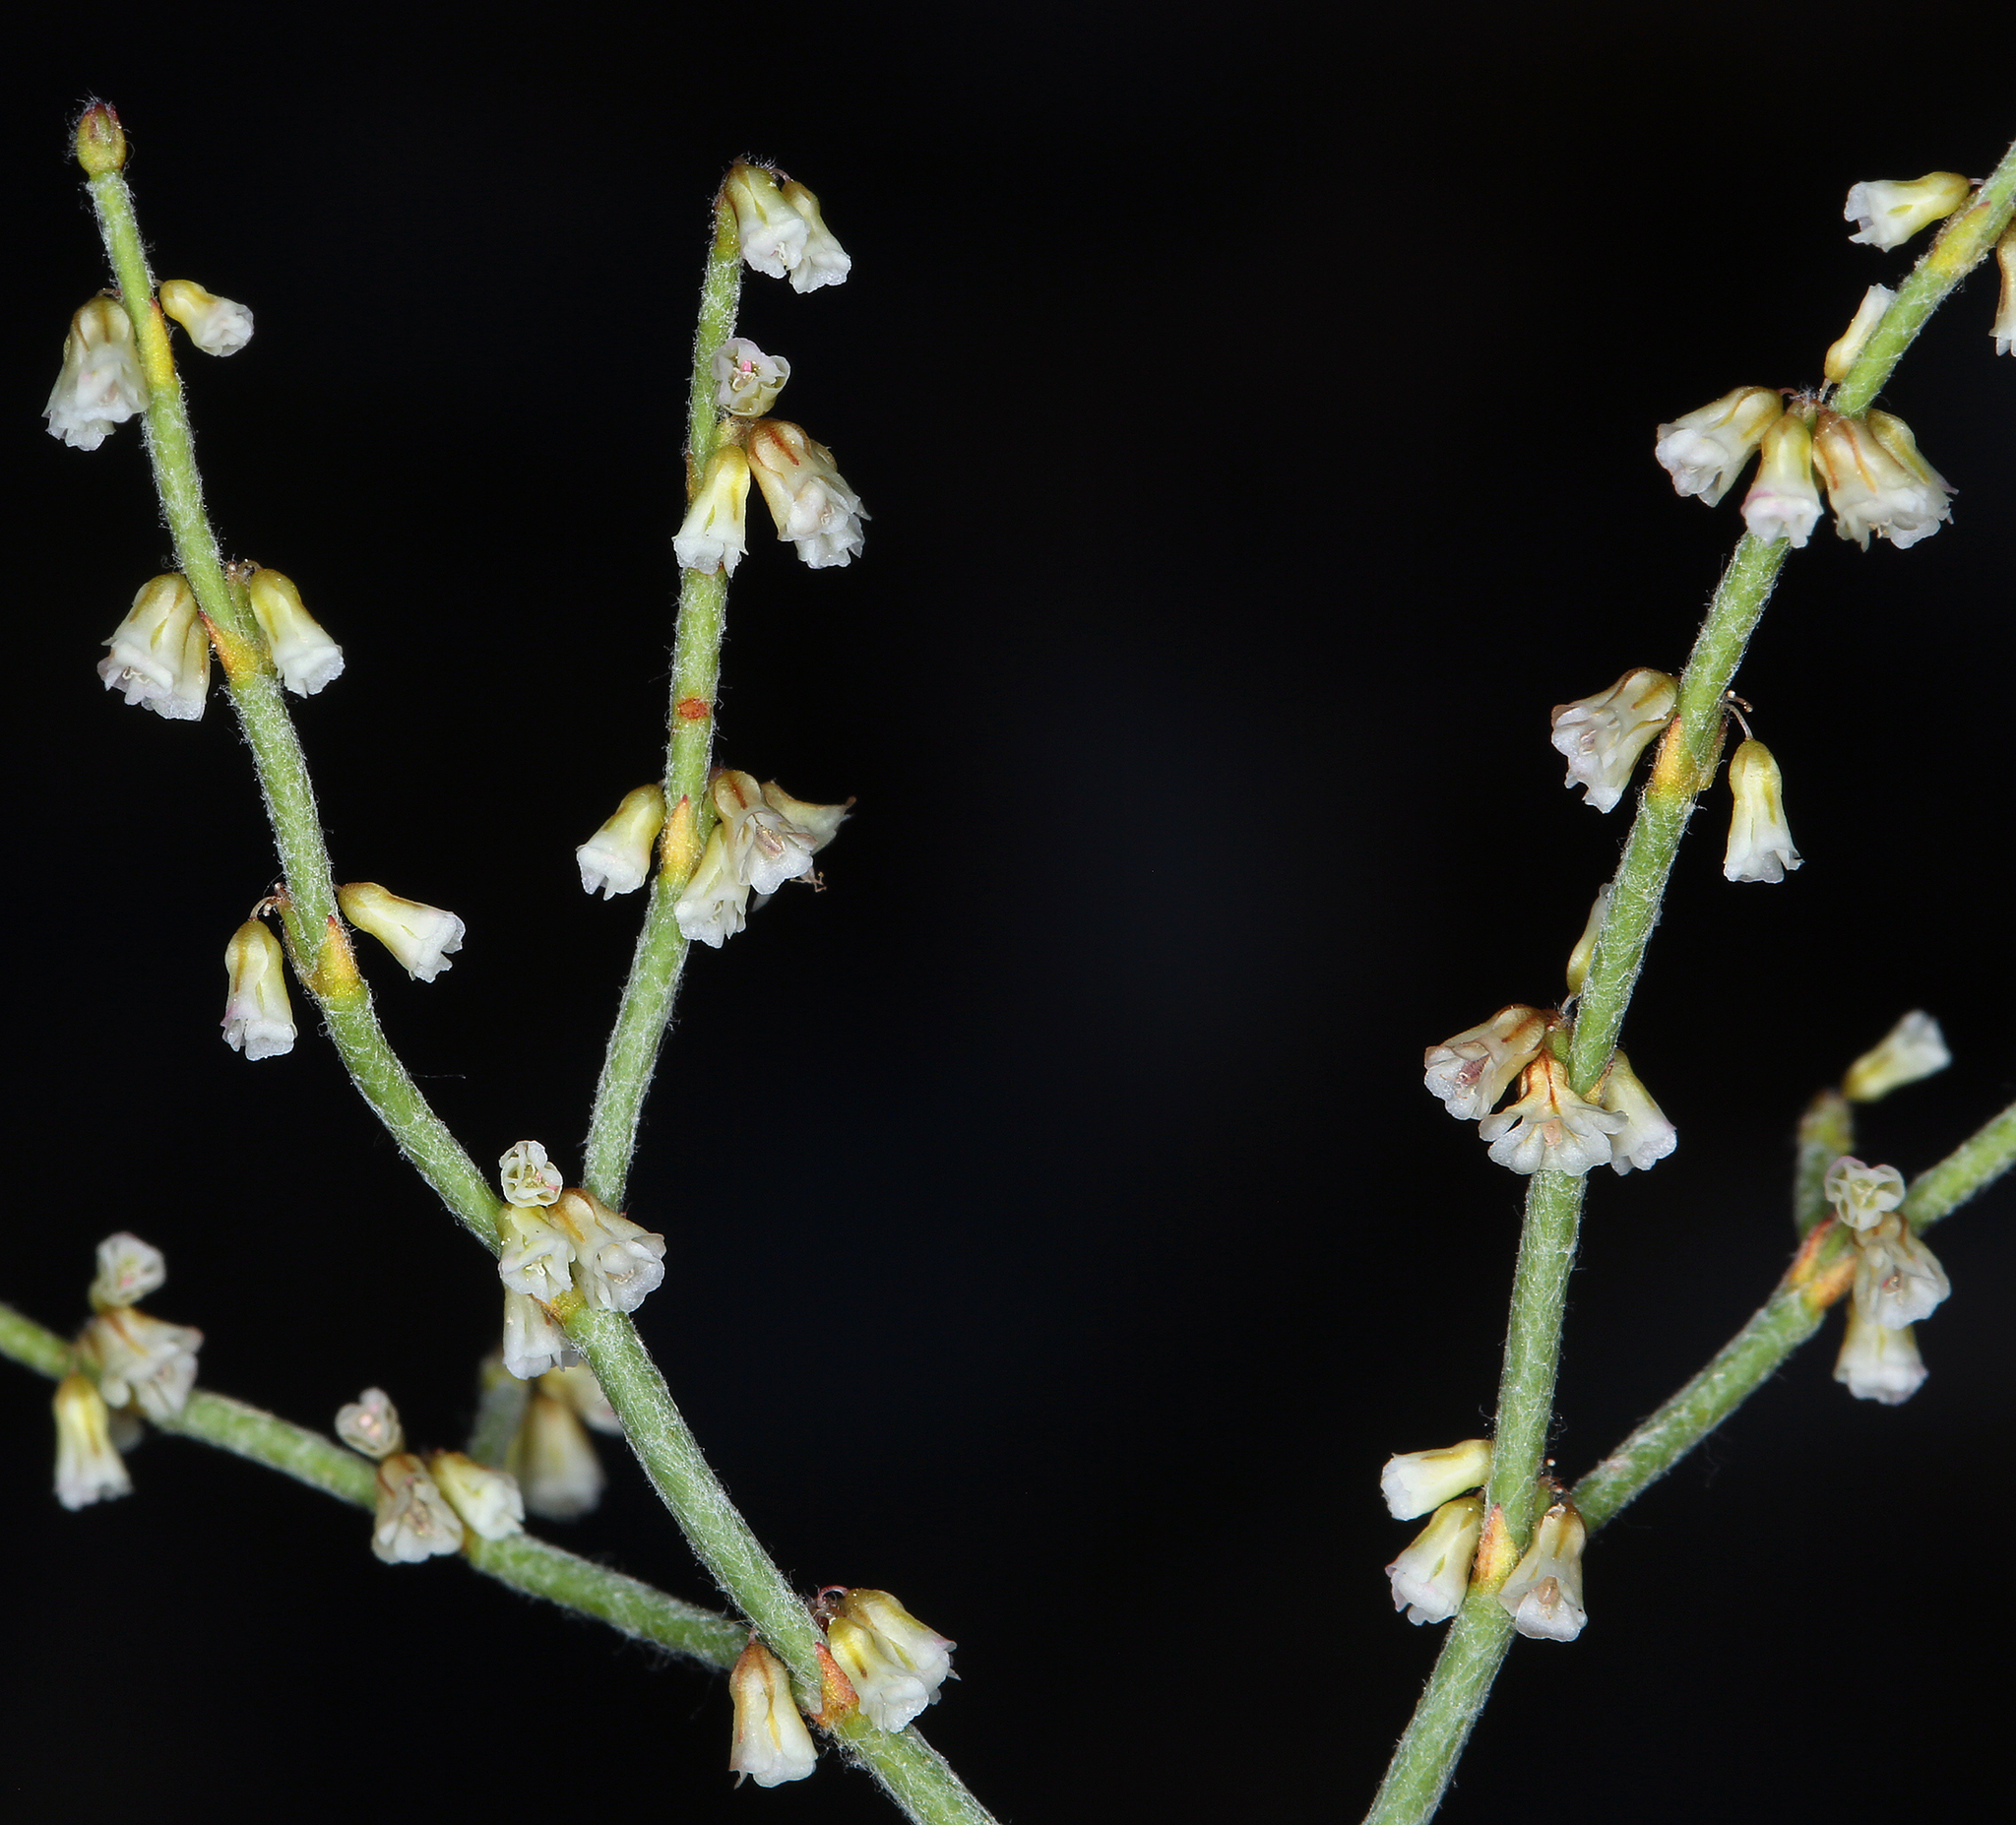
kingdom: Plantae
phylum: Tracheophyta
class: Magnoliopsida
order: Caryophyllales
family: Polygonaceae
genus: Eriogonum
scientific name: Eriogonum palmerianum
